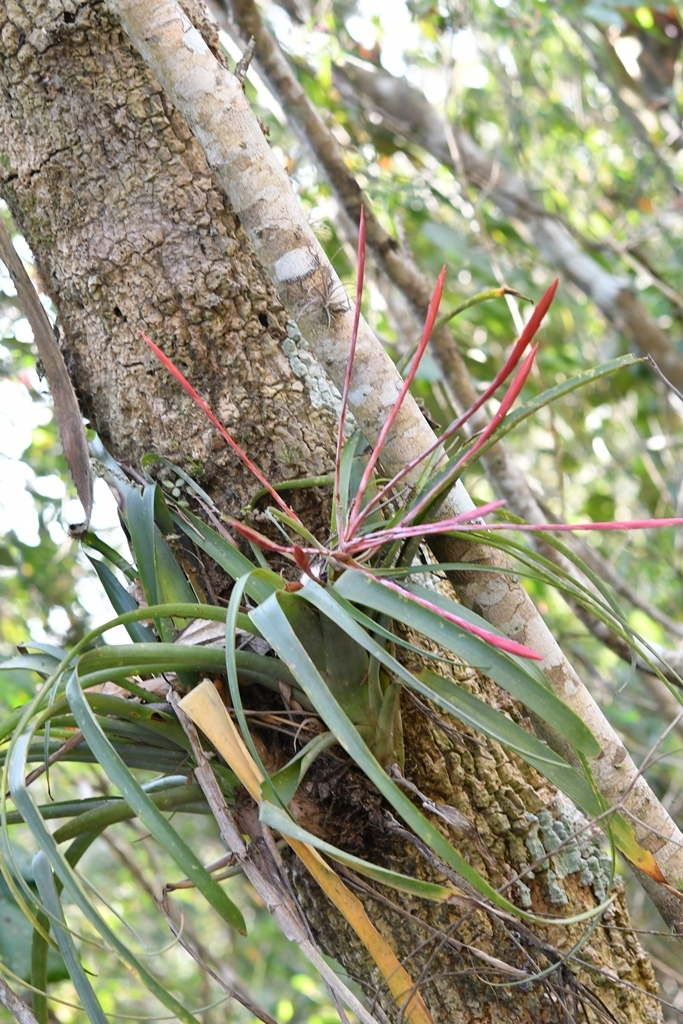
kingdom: Plantae
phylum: Tracheophyta
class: Liliopsida
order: Poales
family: Bromeliaceae
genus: Tillandsia
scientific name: Tillandsia flabellata
